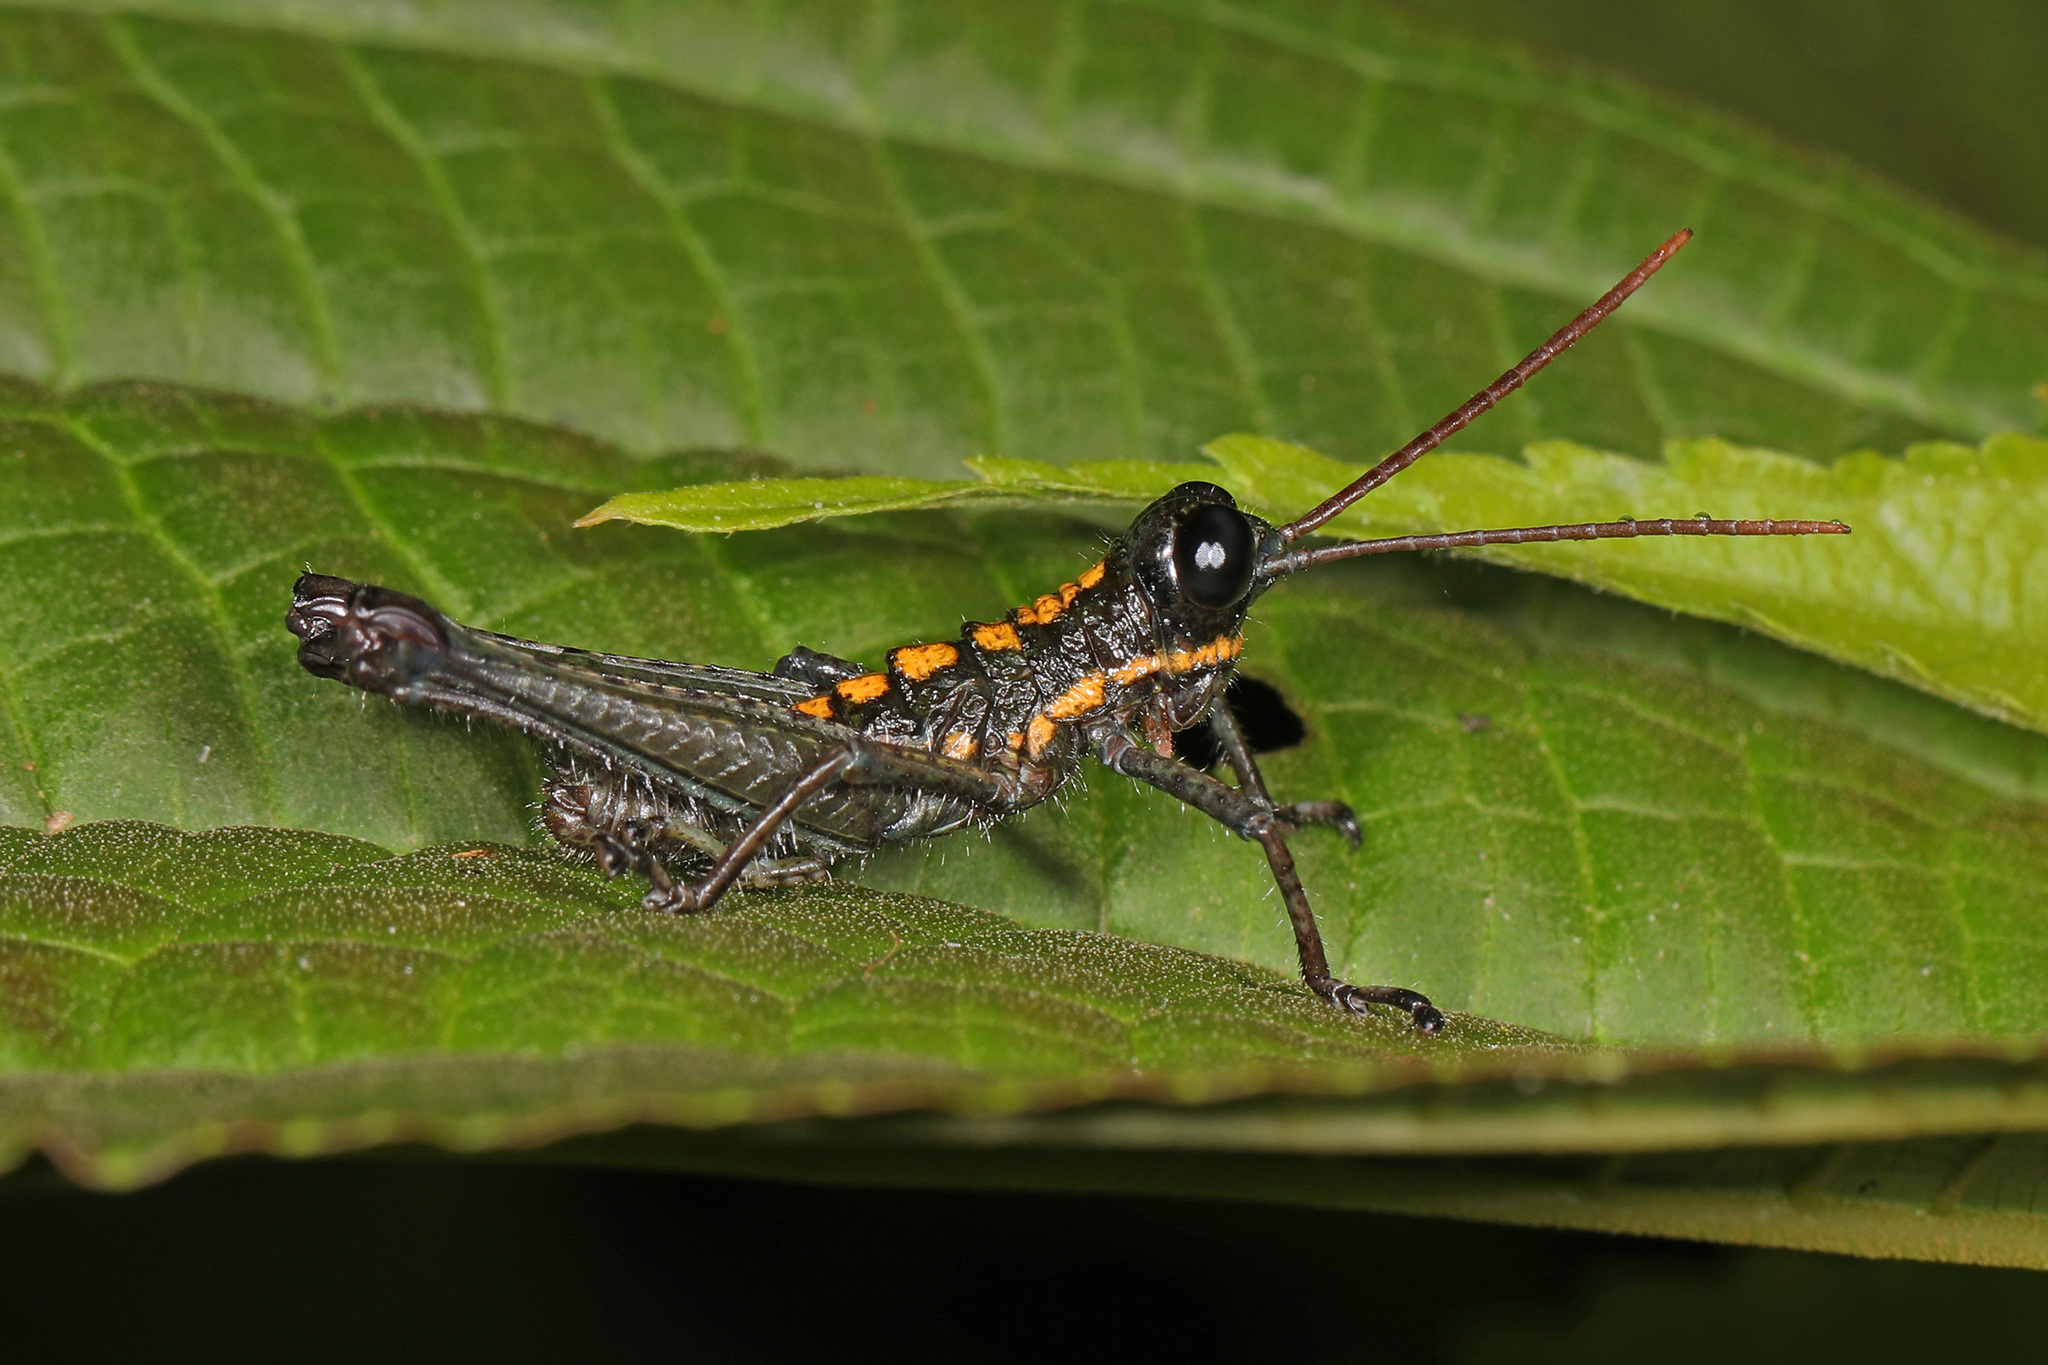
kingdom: Animalia
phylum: Arthropoda
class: Insecta
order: Orthoptera
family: Acrididae
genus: Trichopaon
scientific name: Trichopaon tatei
